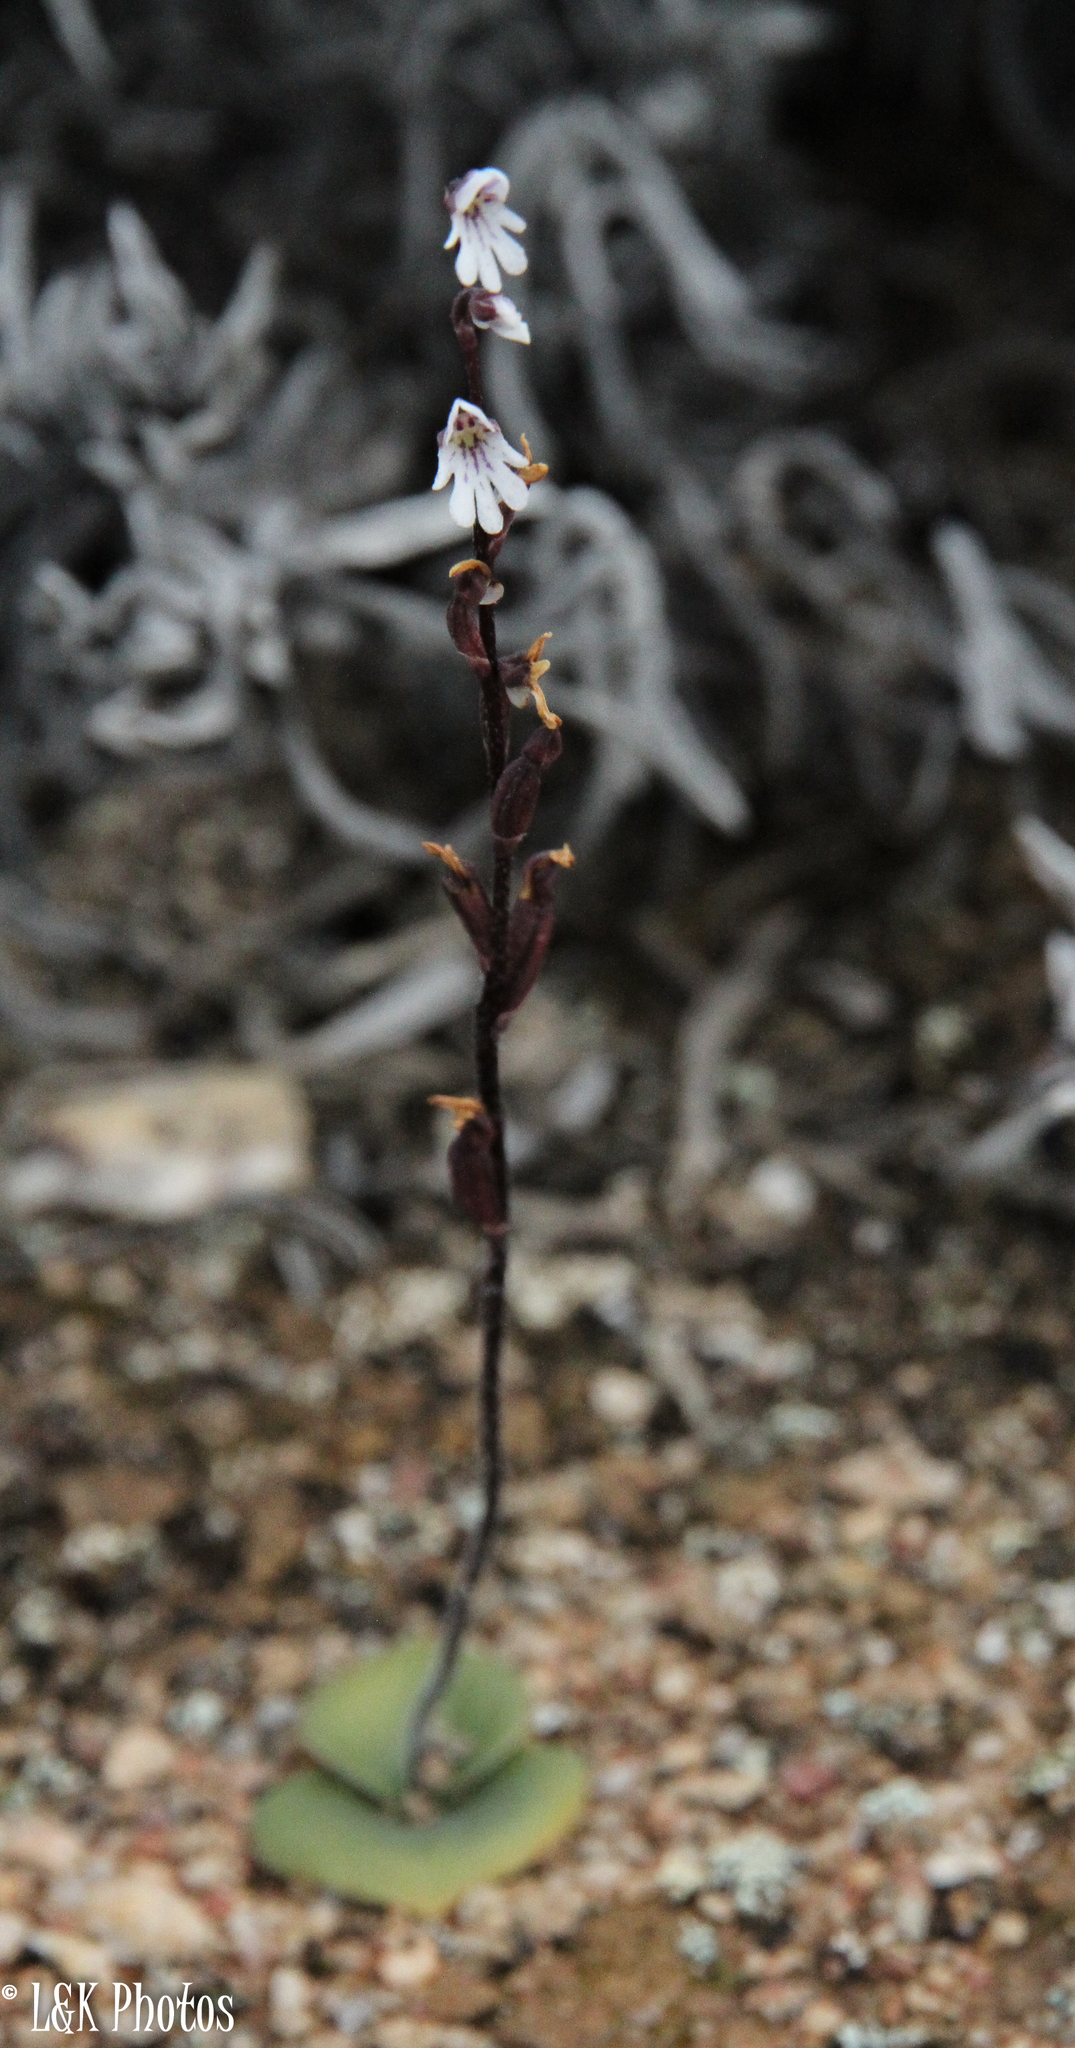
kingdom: Plantae
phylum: Tracheophyta
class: Liliopsida
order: Asparagales
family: Orchidaceae
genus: Holothrix
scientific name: Holothrix aspera
